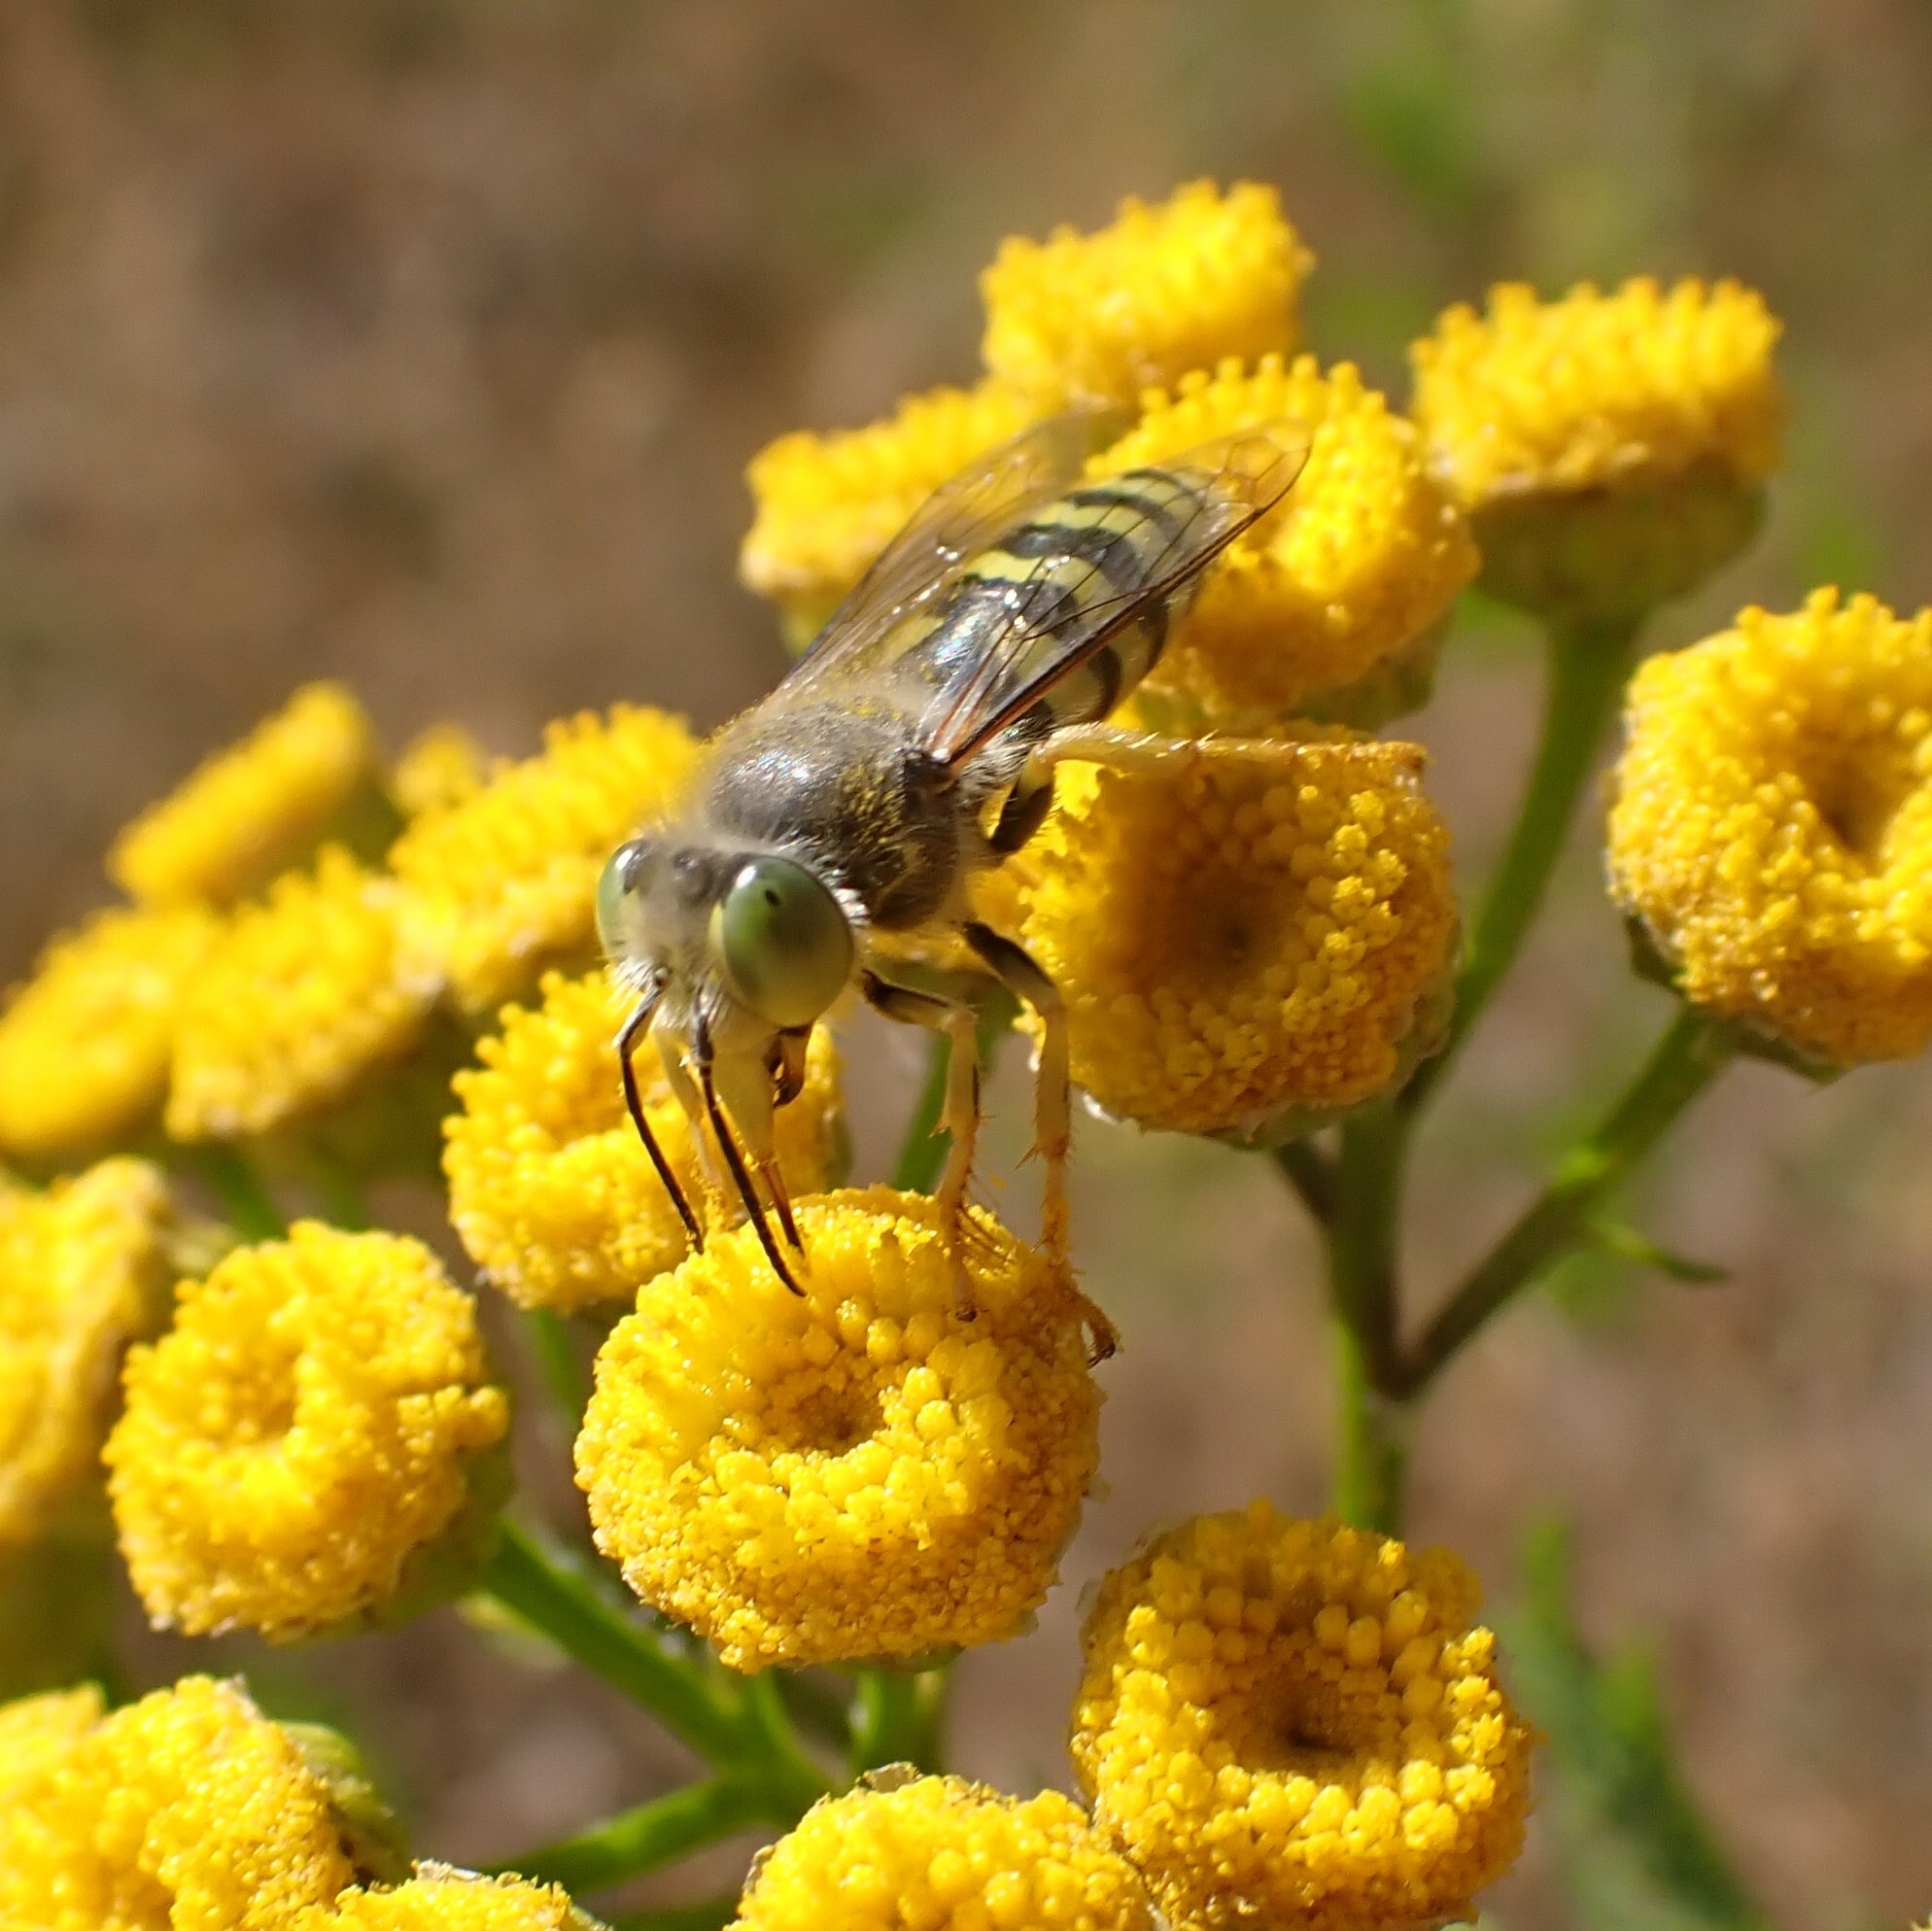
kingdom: Animalia
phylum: Arthropoda
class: Insecta
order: Hymenoptera
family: Crabronidae
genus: Bembix
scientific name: Bembix americana
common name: American sand wasp
